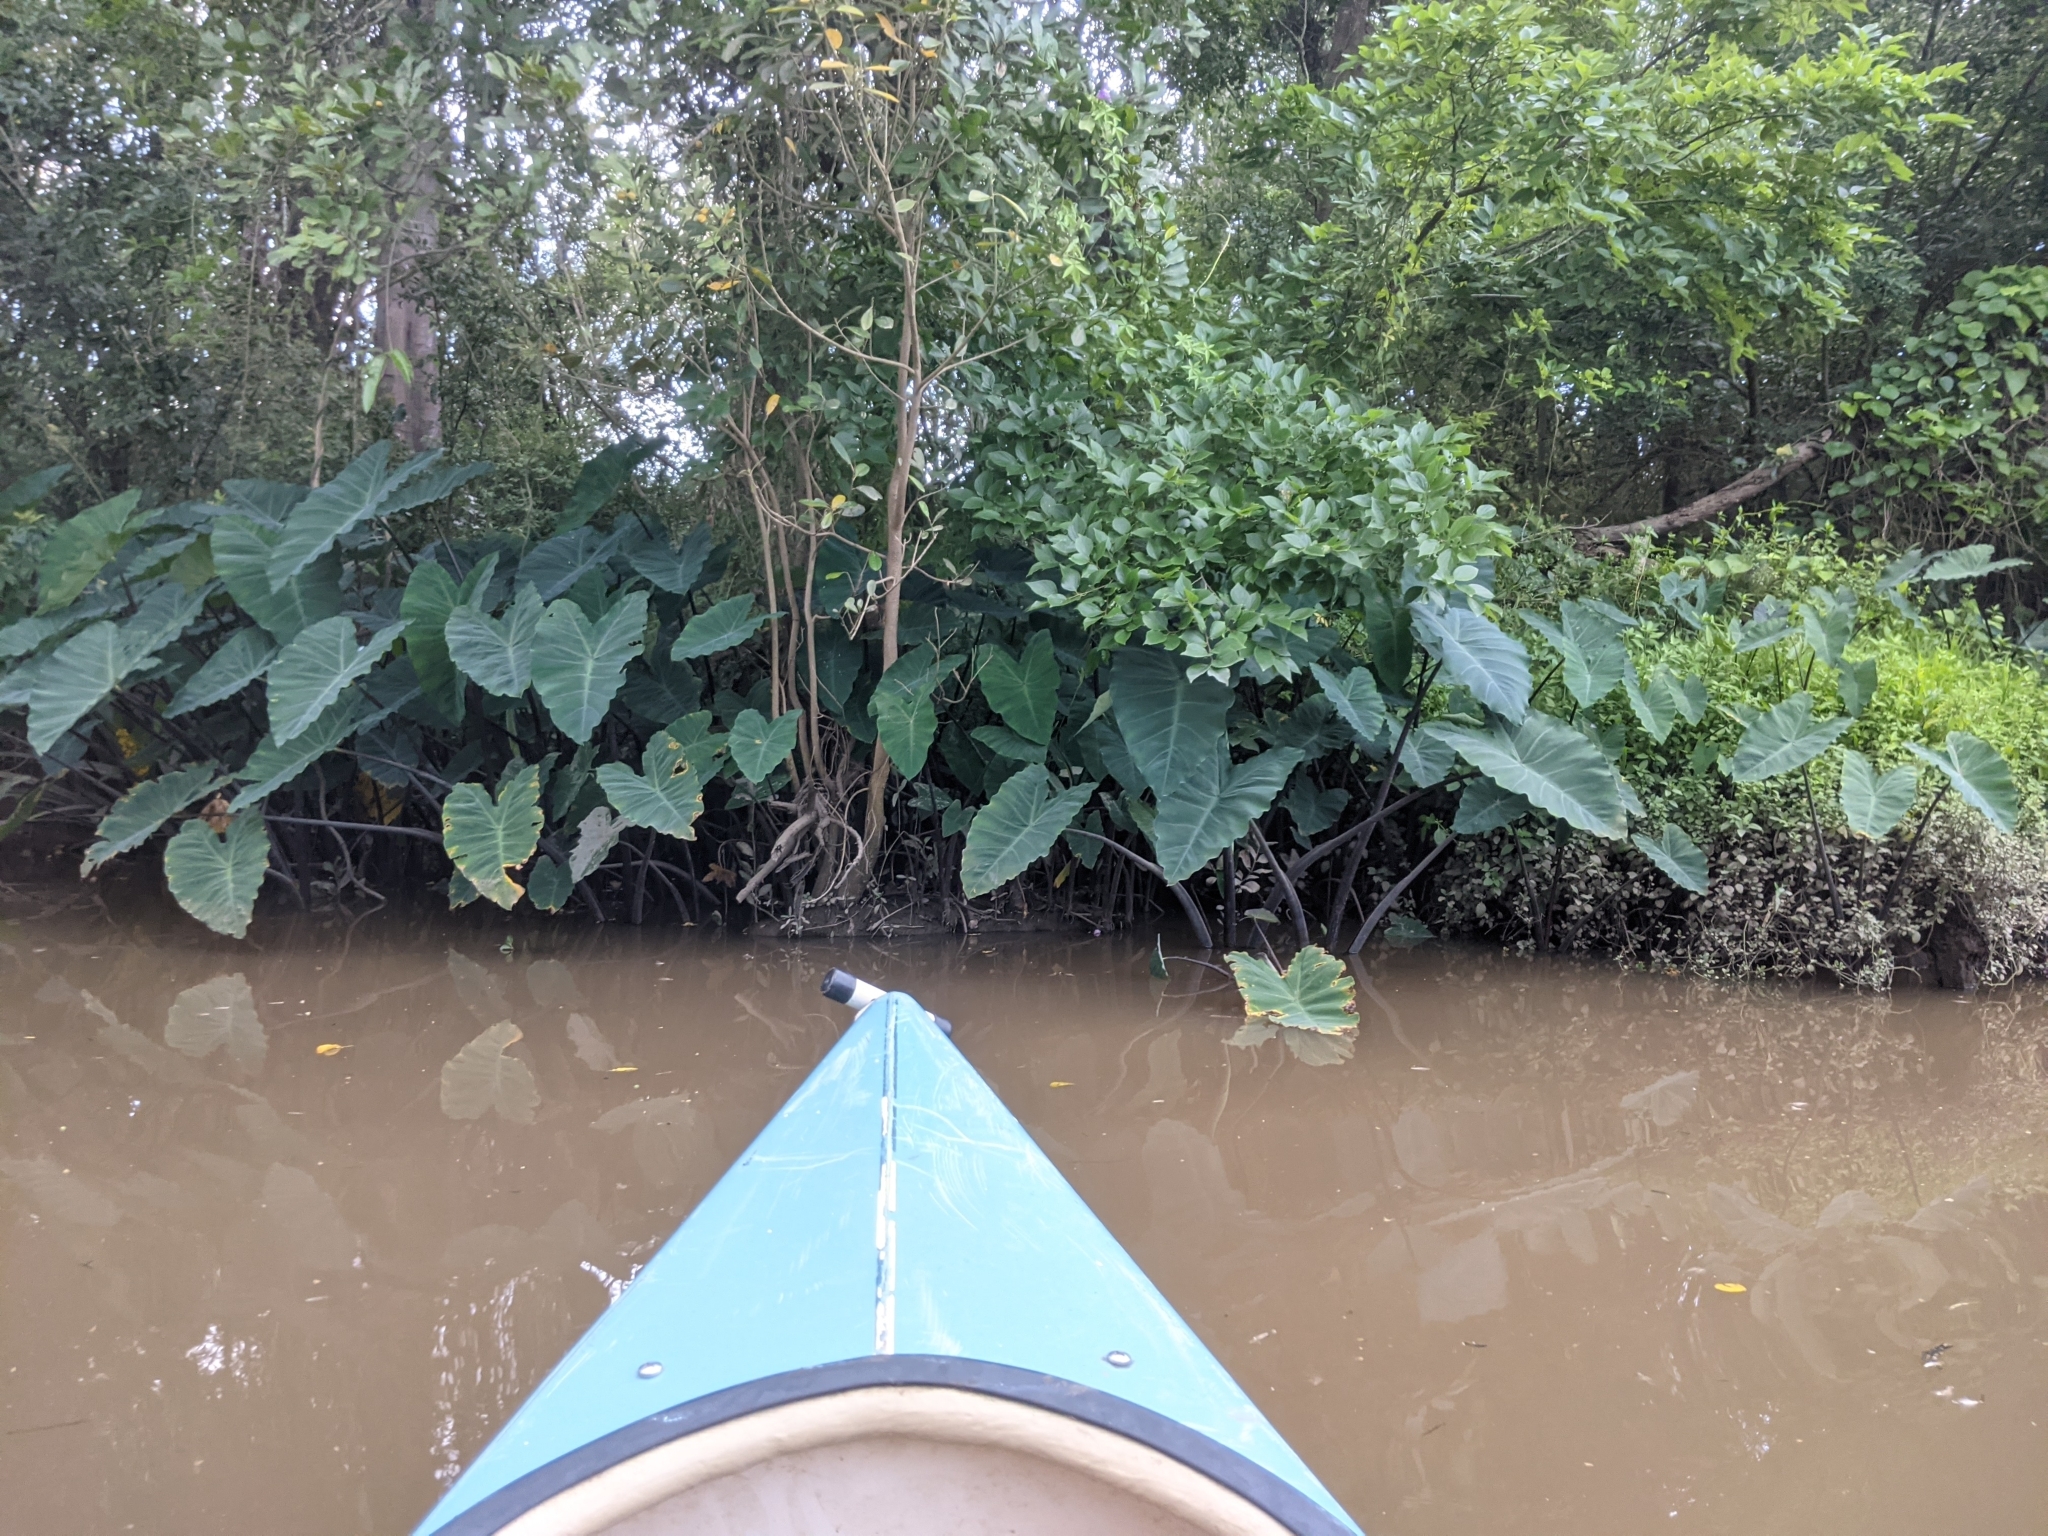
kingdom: Plantae
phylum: Tracheophyta
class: Liliopsida
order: Alismatales
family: Araceae
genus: Colocasia
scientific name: Colocasia esculenta
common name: Taro
